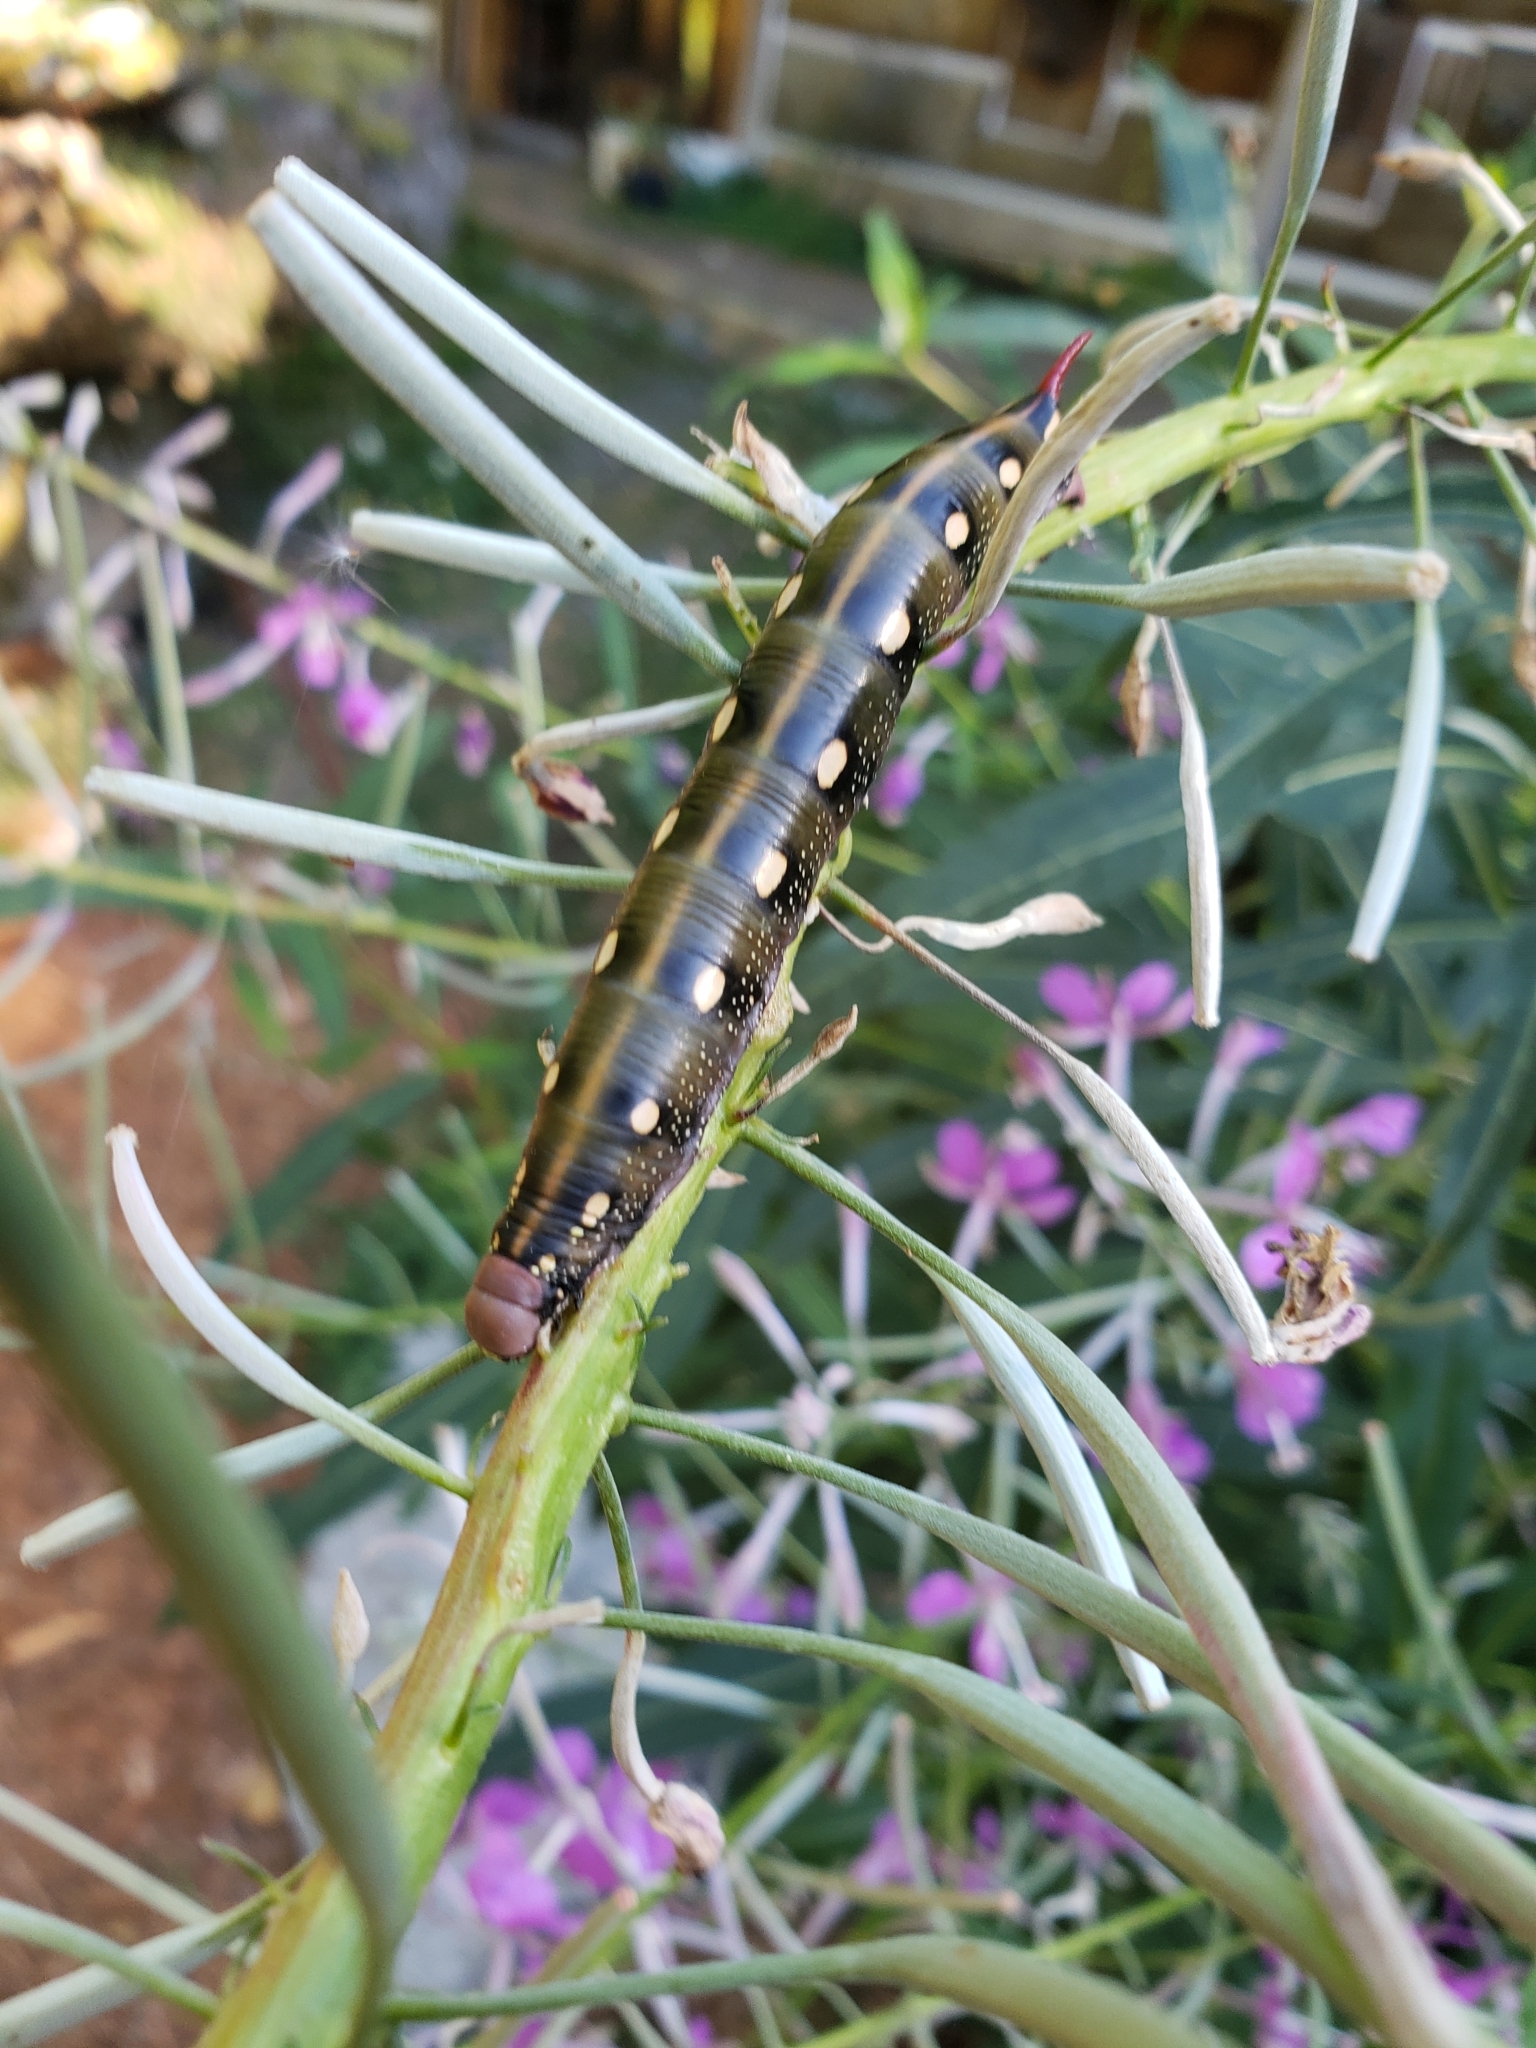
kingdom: Animalia
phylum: Arthropoda
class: Insecta
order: Lepidoptera
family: Sphingidae
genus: Hyles
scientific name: Hyles gallii
